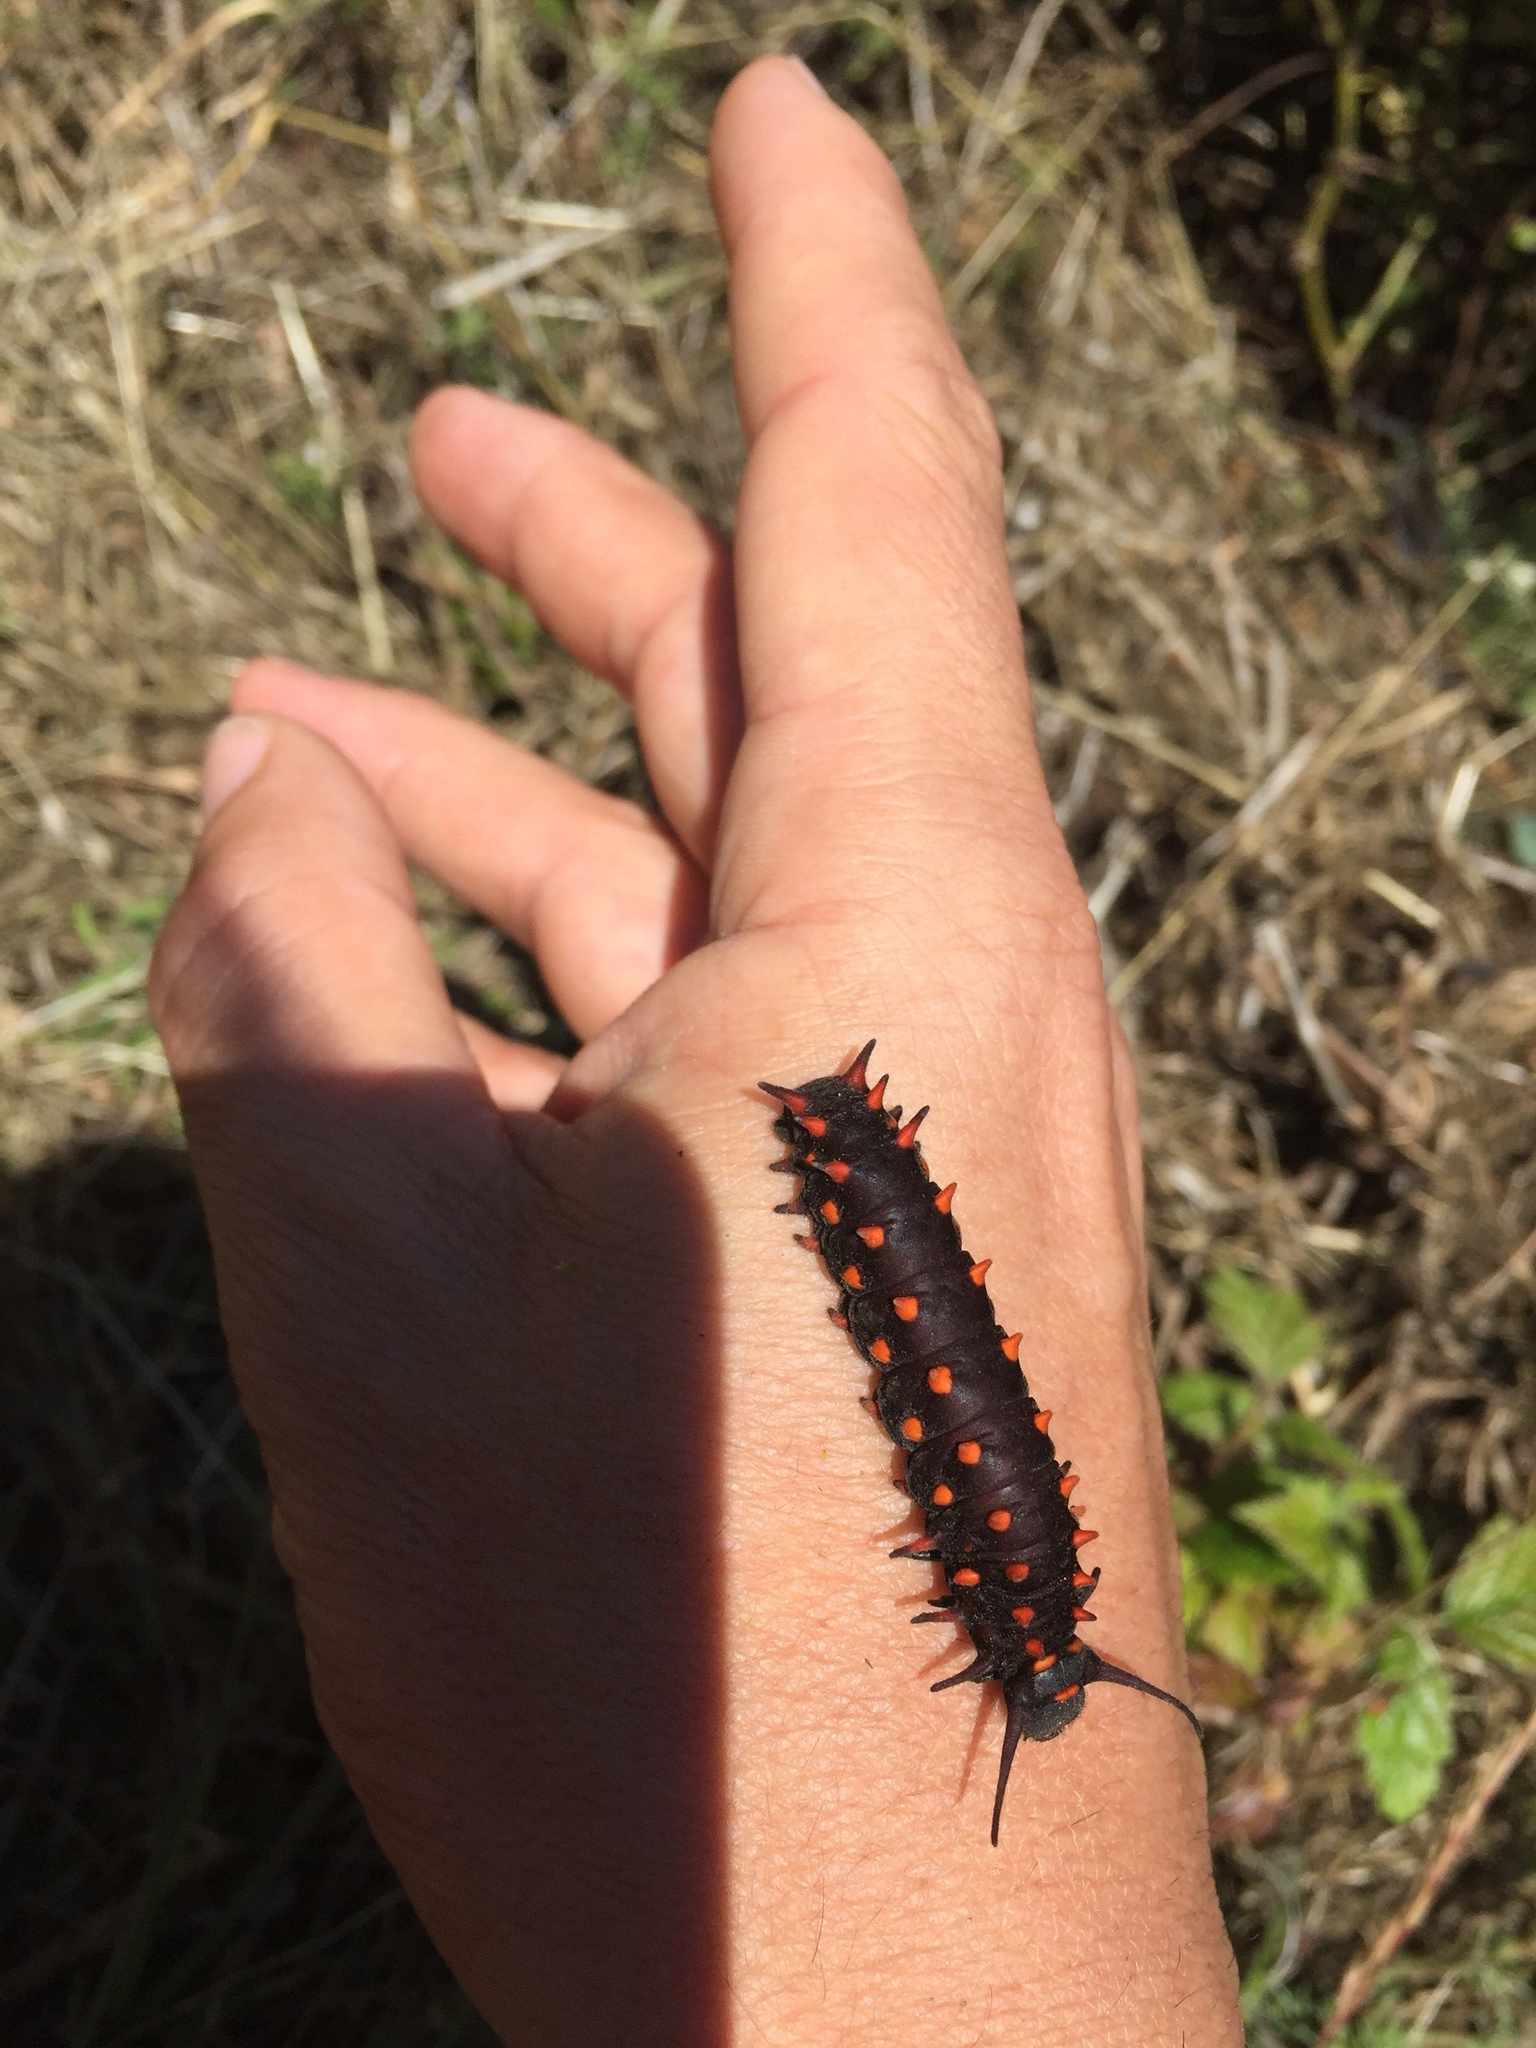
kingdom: Animalia
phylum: Arthropoda
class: Insecta
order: Lepidoptera
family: Papilionidae
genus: Battus
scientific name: Battus philenor
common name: Pipevine swallowtail
